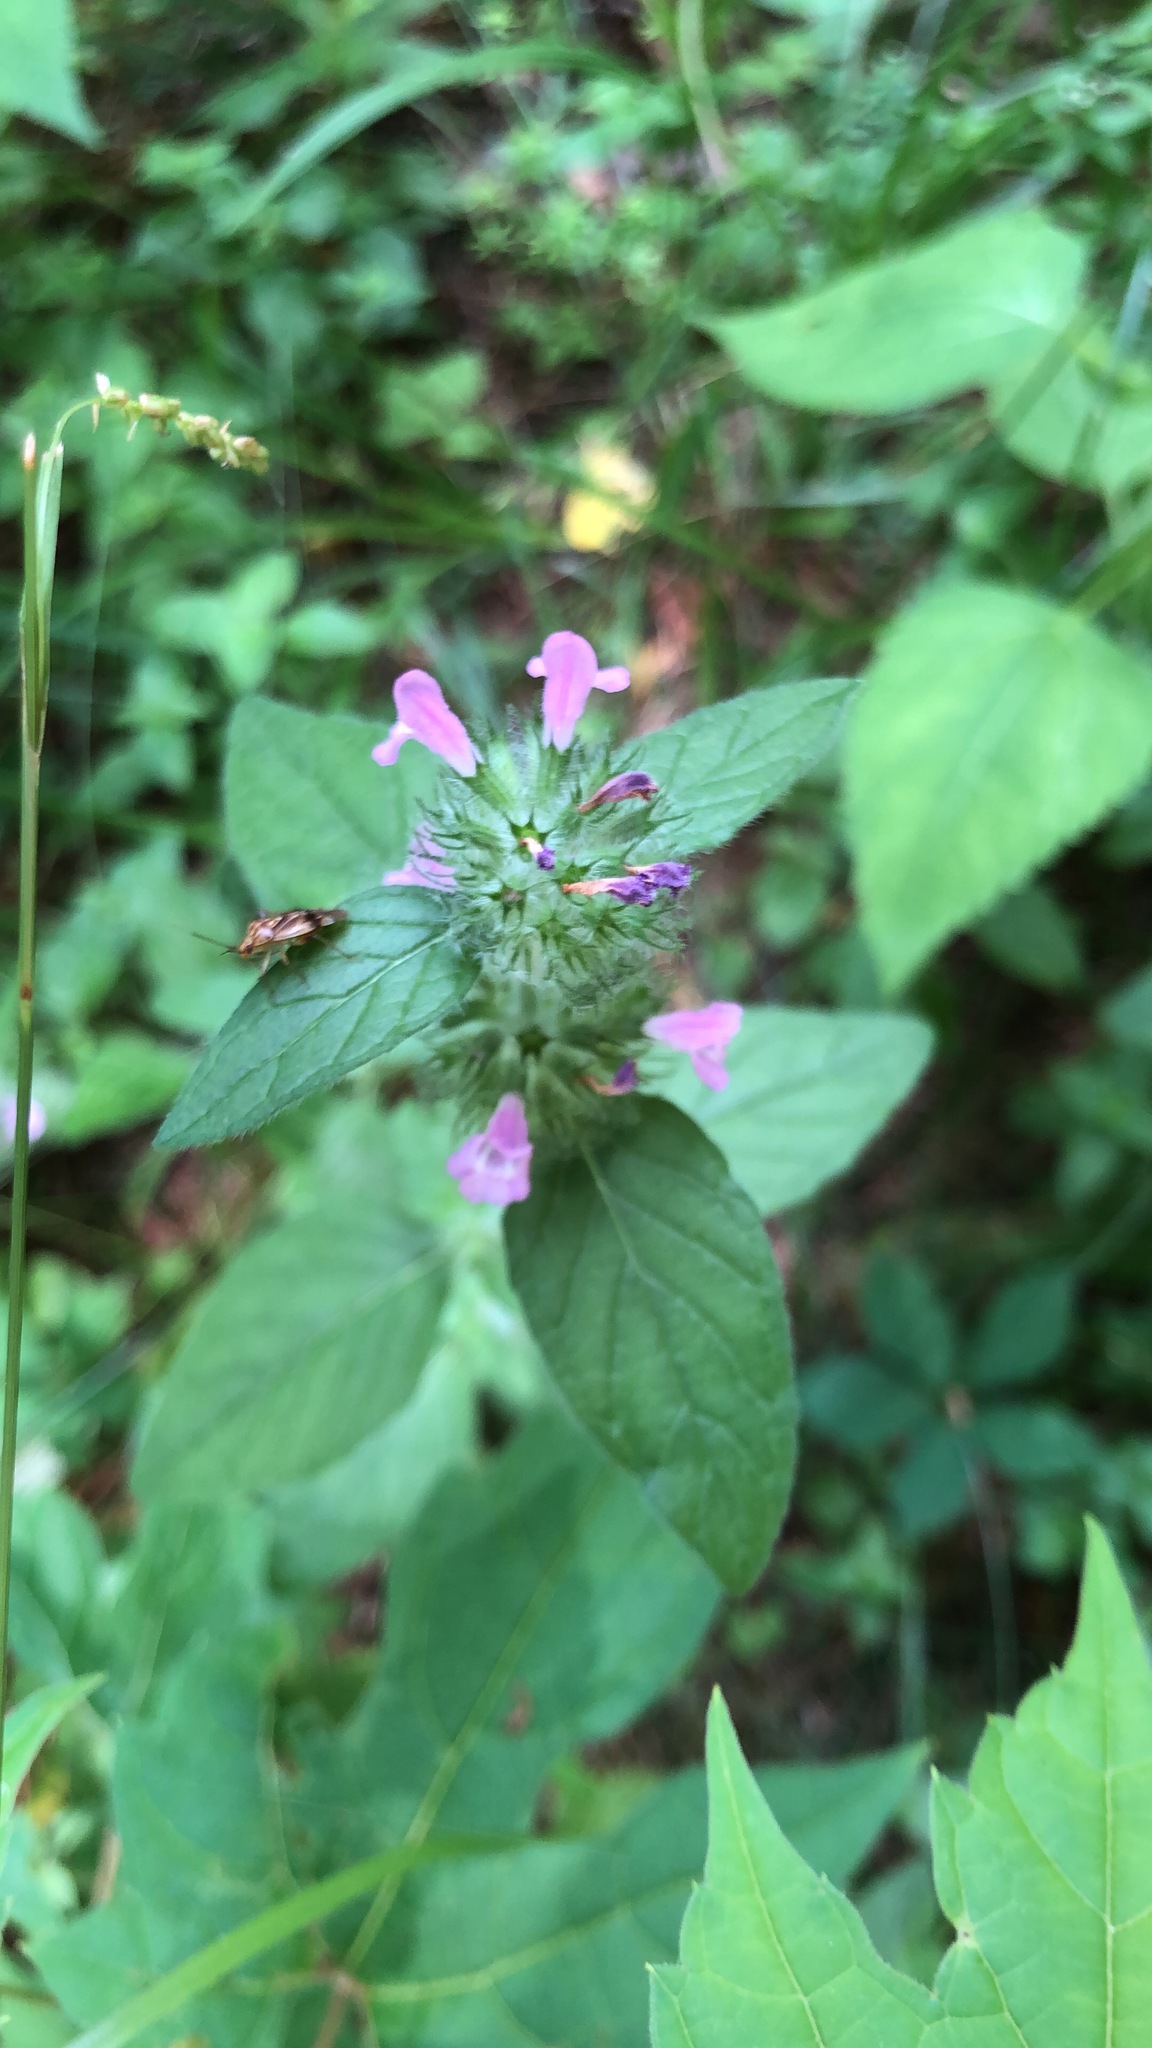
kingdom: Plantae
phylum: Tracheophyta
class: Magnoliopsida
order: Lamiales
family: Lamiaceae
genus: Clinopodium
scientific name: Clinopodium vulgare
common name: Wild basil
